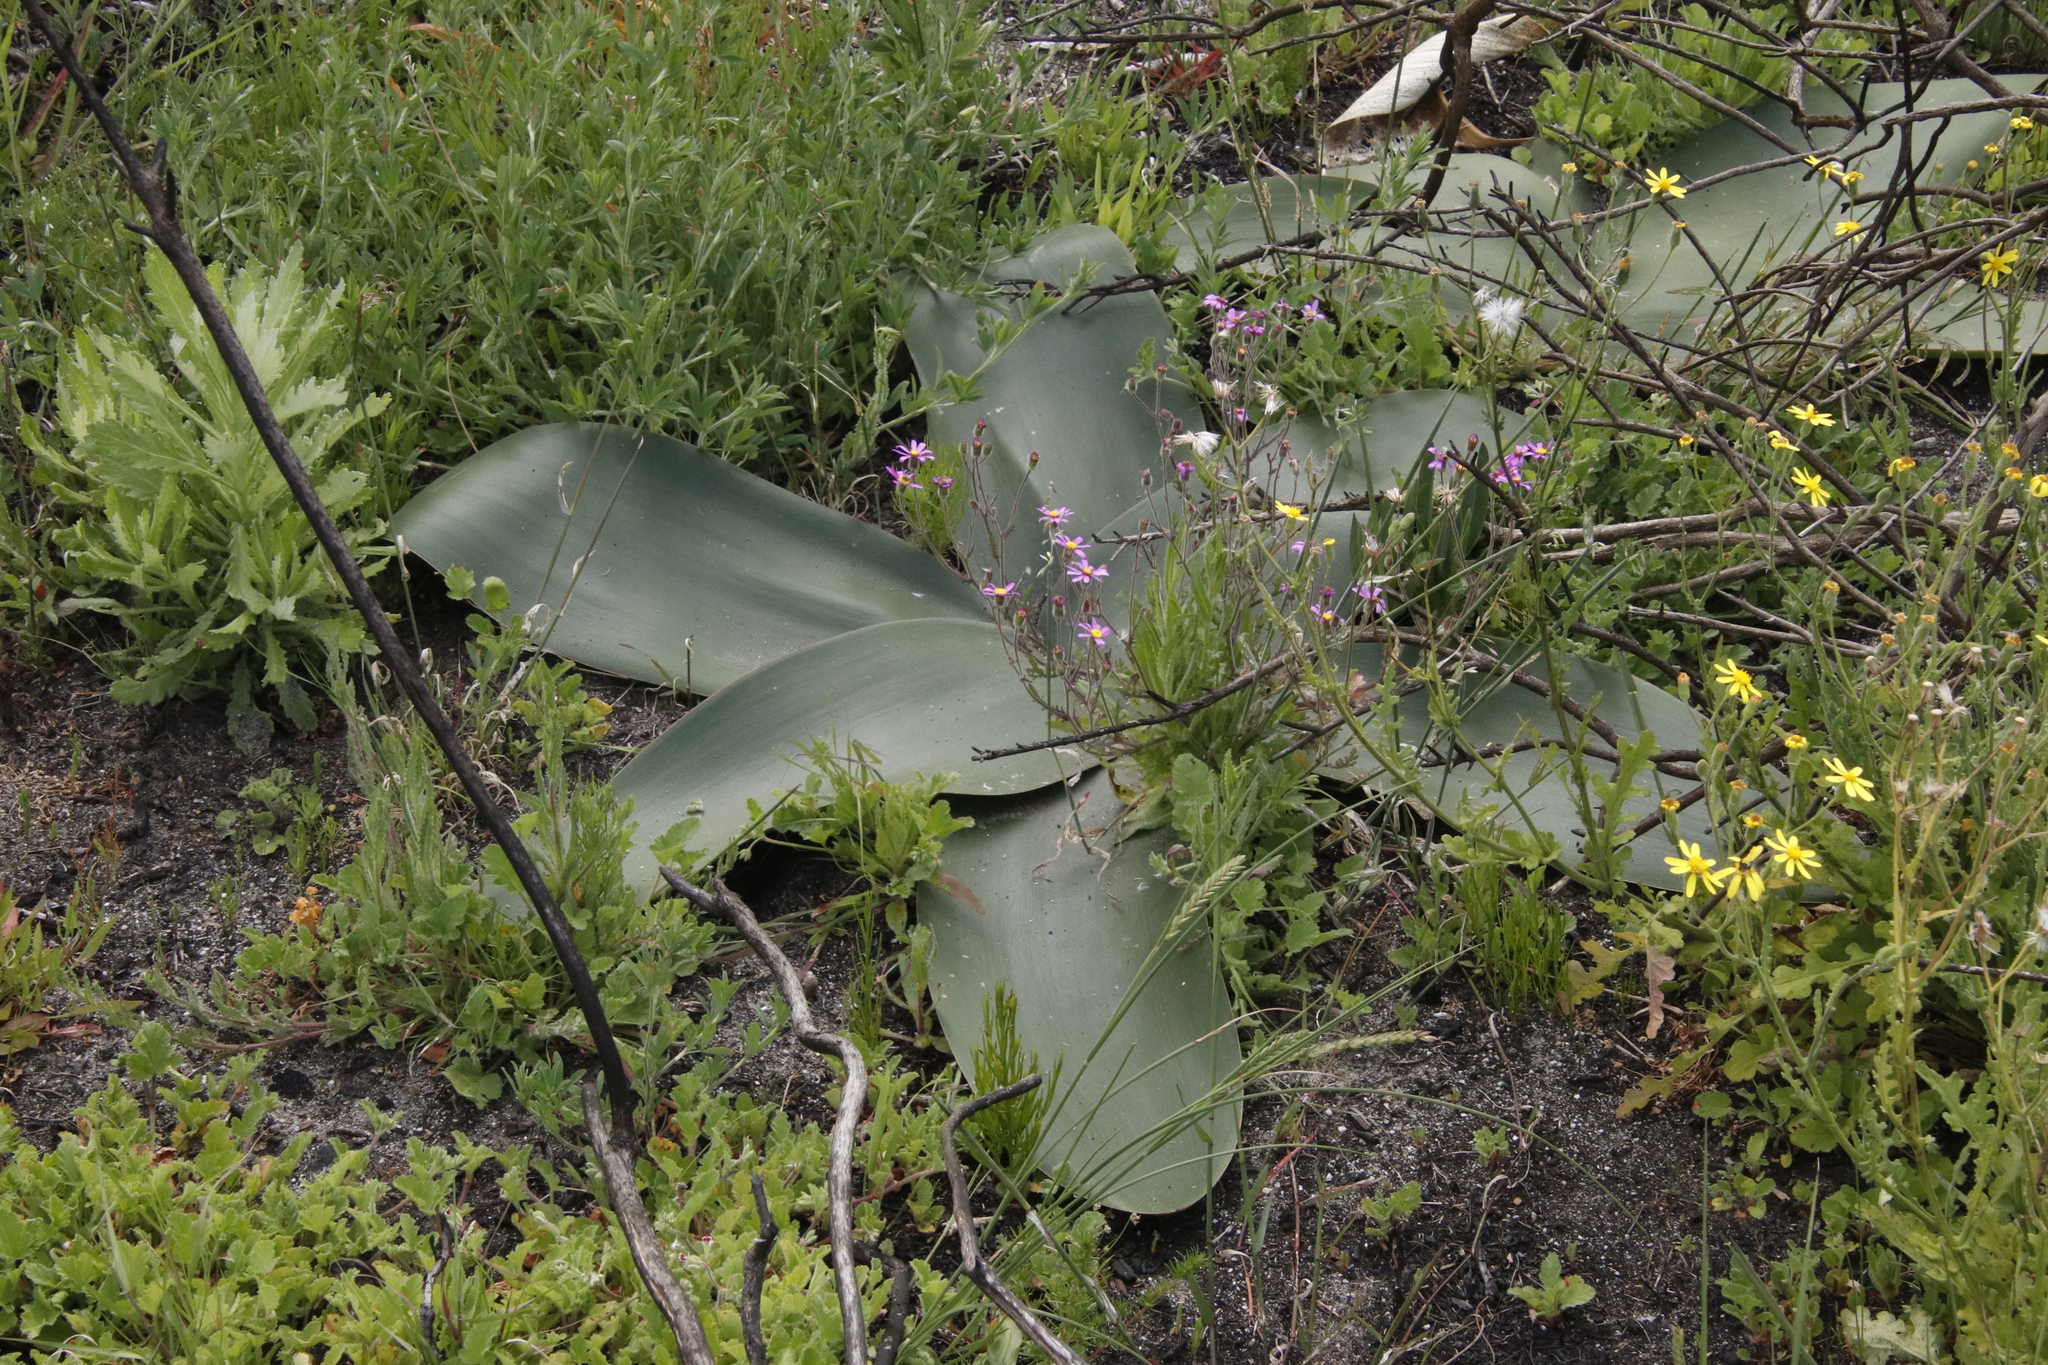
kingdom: Plantae
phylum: Tracheophyta
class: Liliopsida
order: Asparagales
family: Amaryllidaceae
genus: Brunsvigia
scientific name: Brunsvigia orientalis
